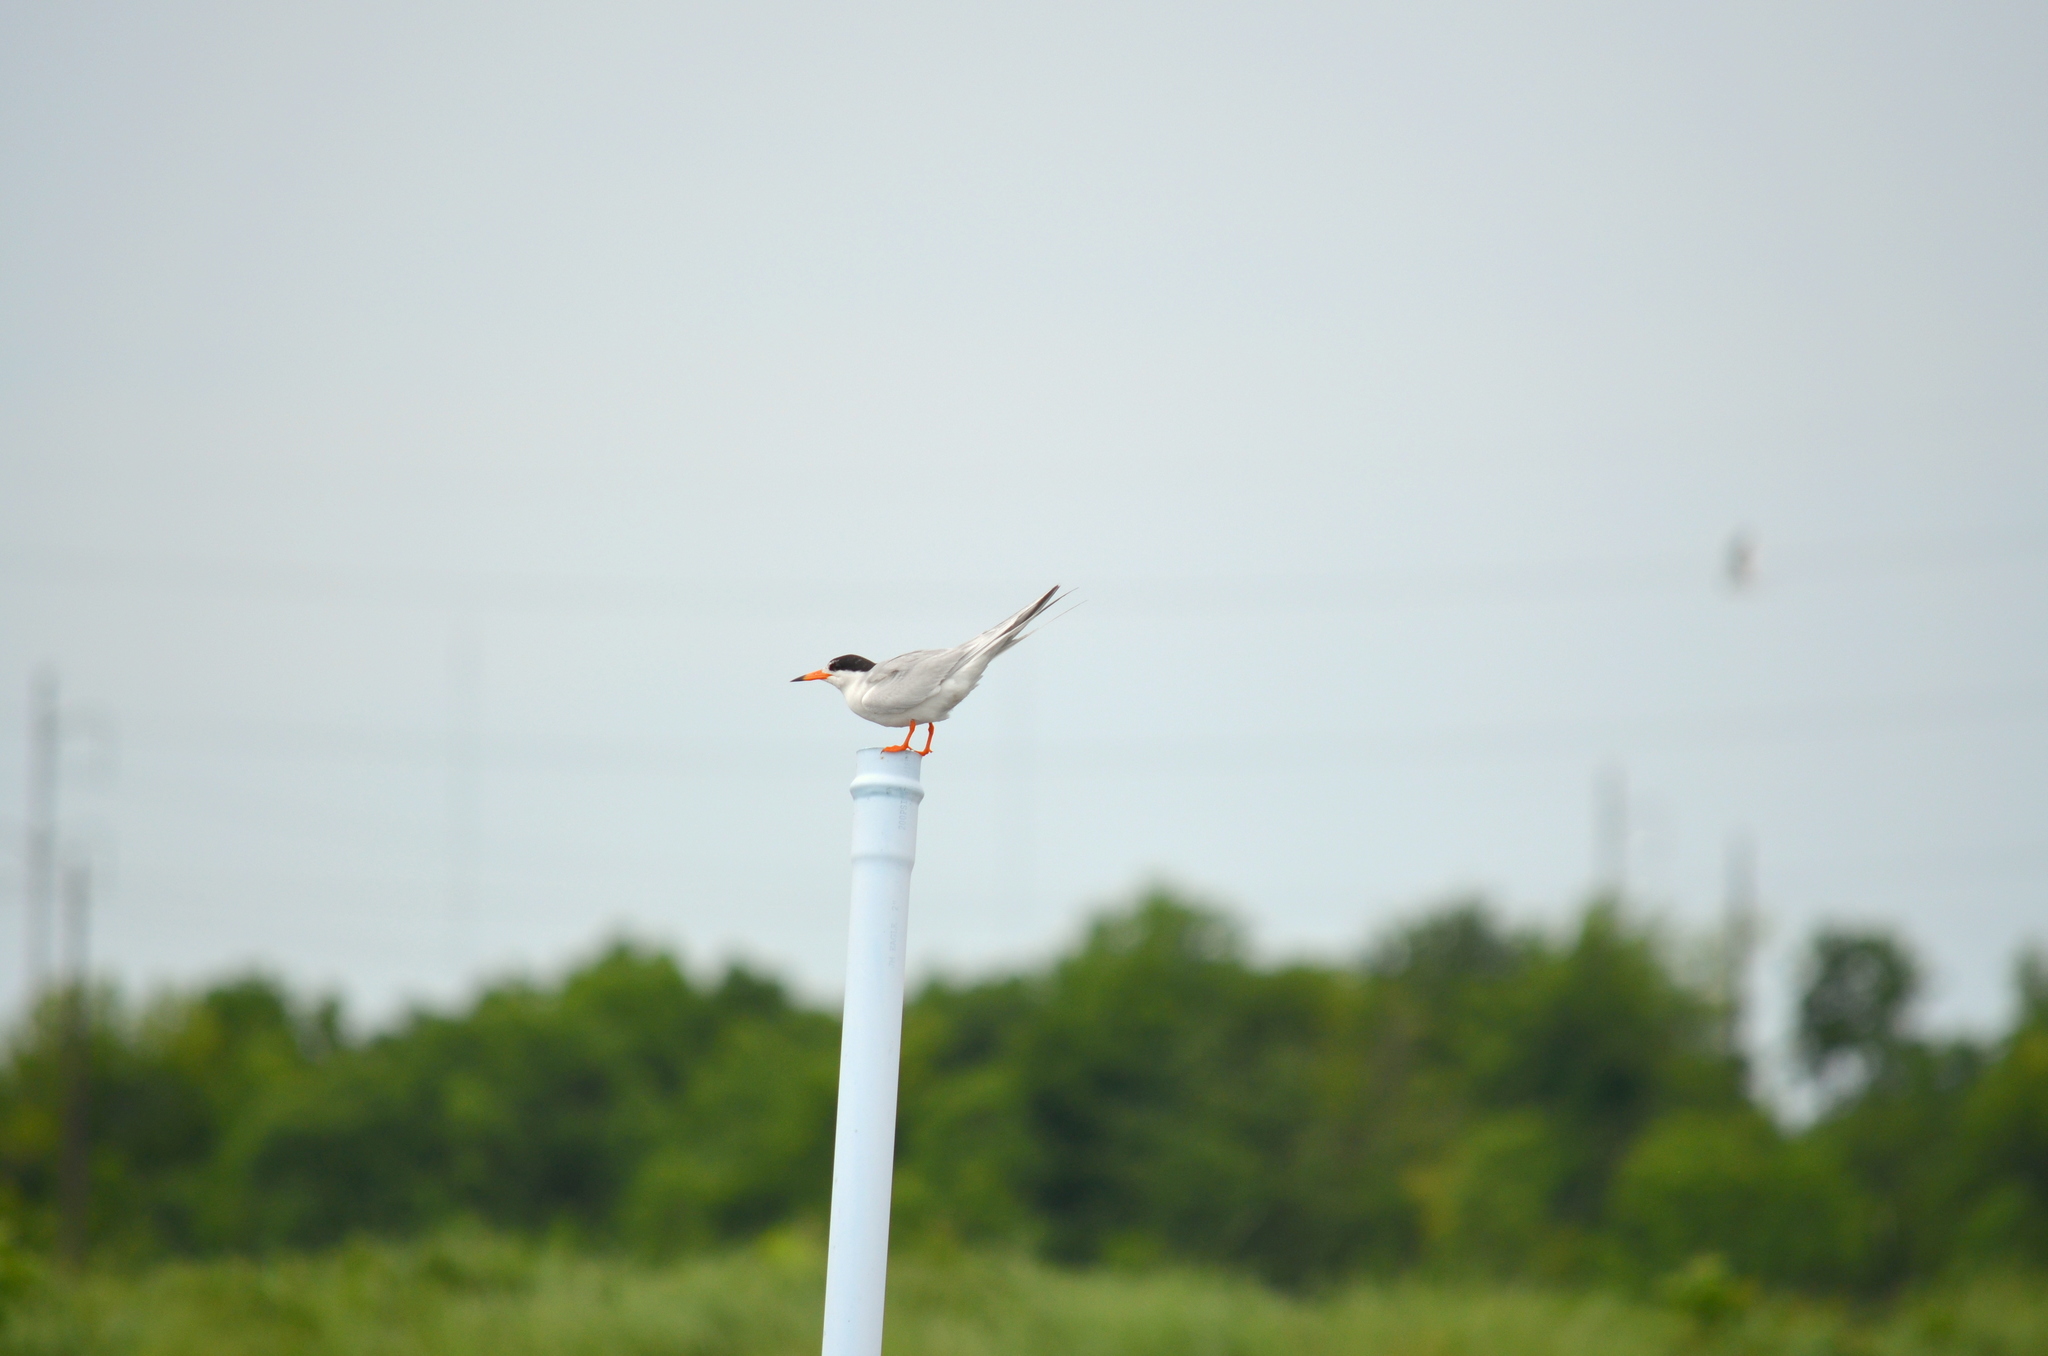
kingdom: Animalia
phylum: Chordata
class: Aves
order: Charadriiformes
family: Laridae
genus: Sterna
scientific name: Sterna forsteri
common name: Forster's tern
